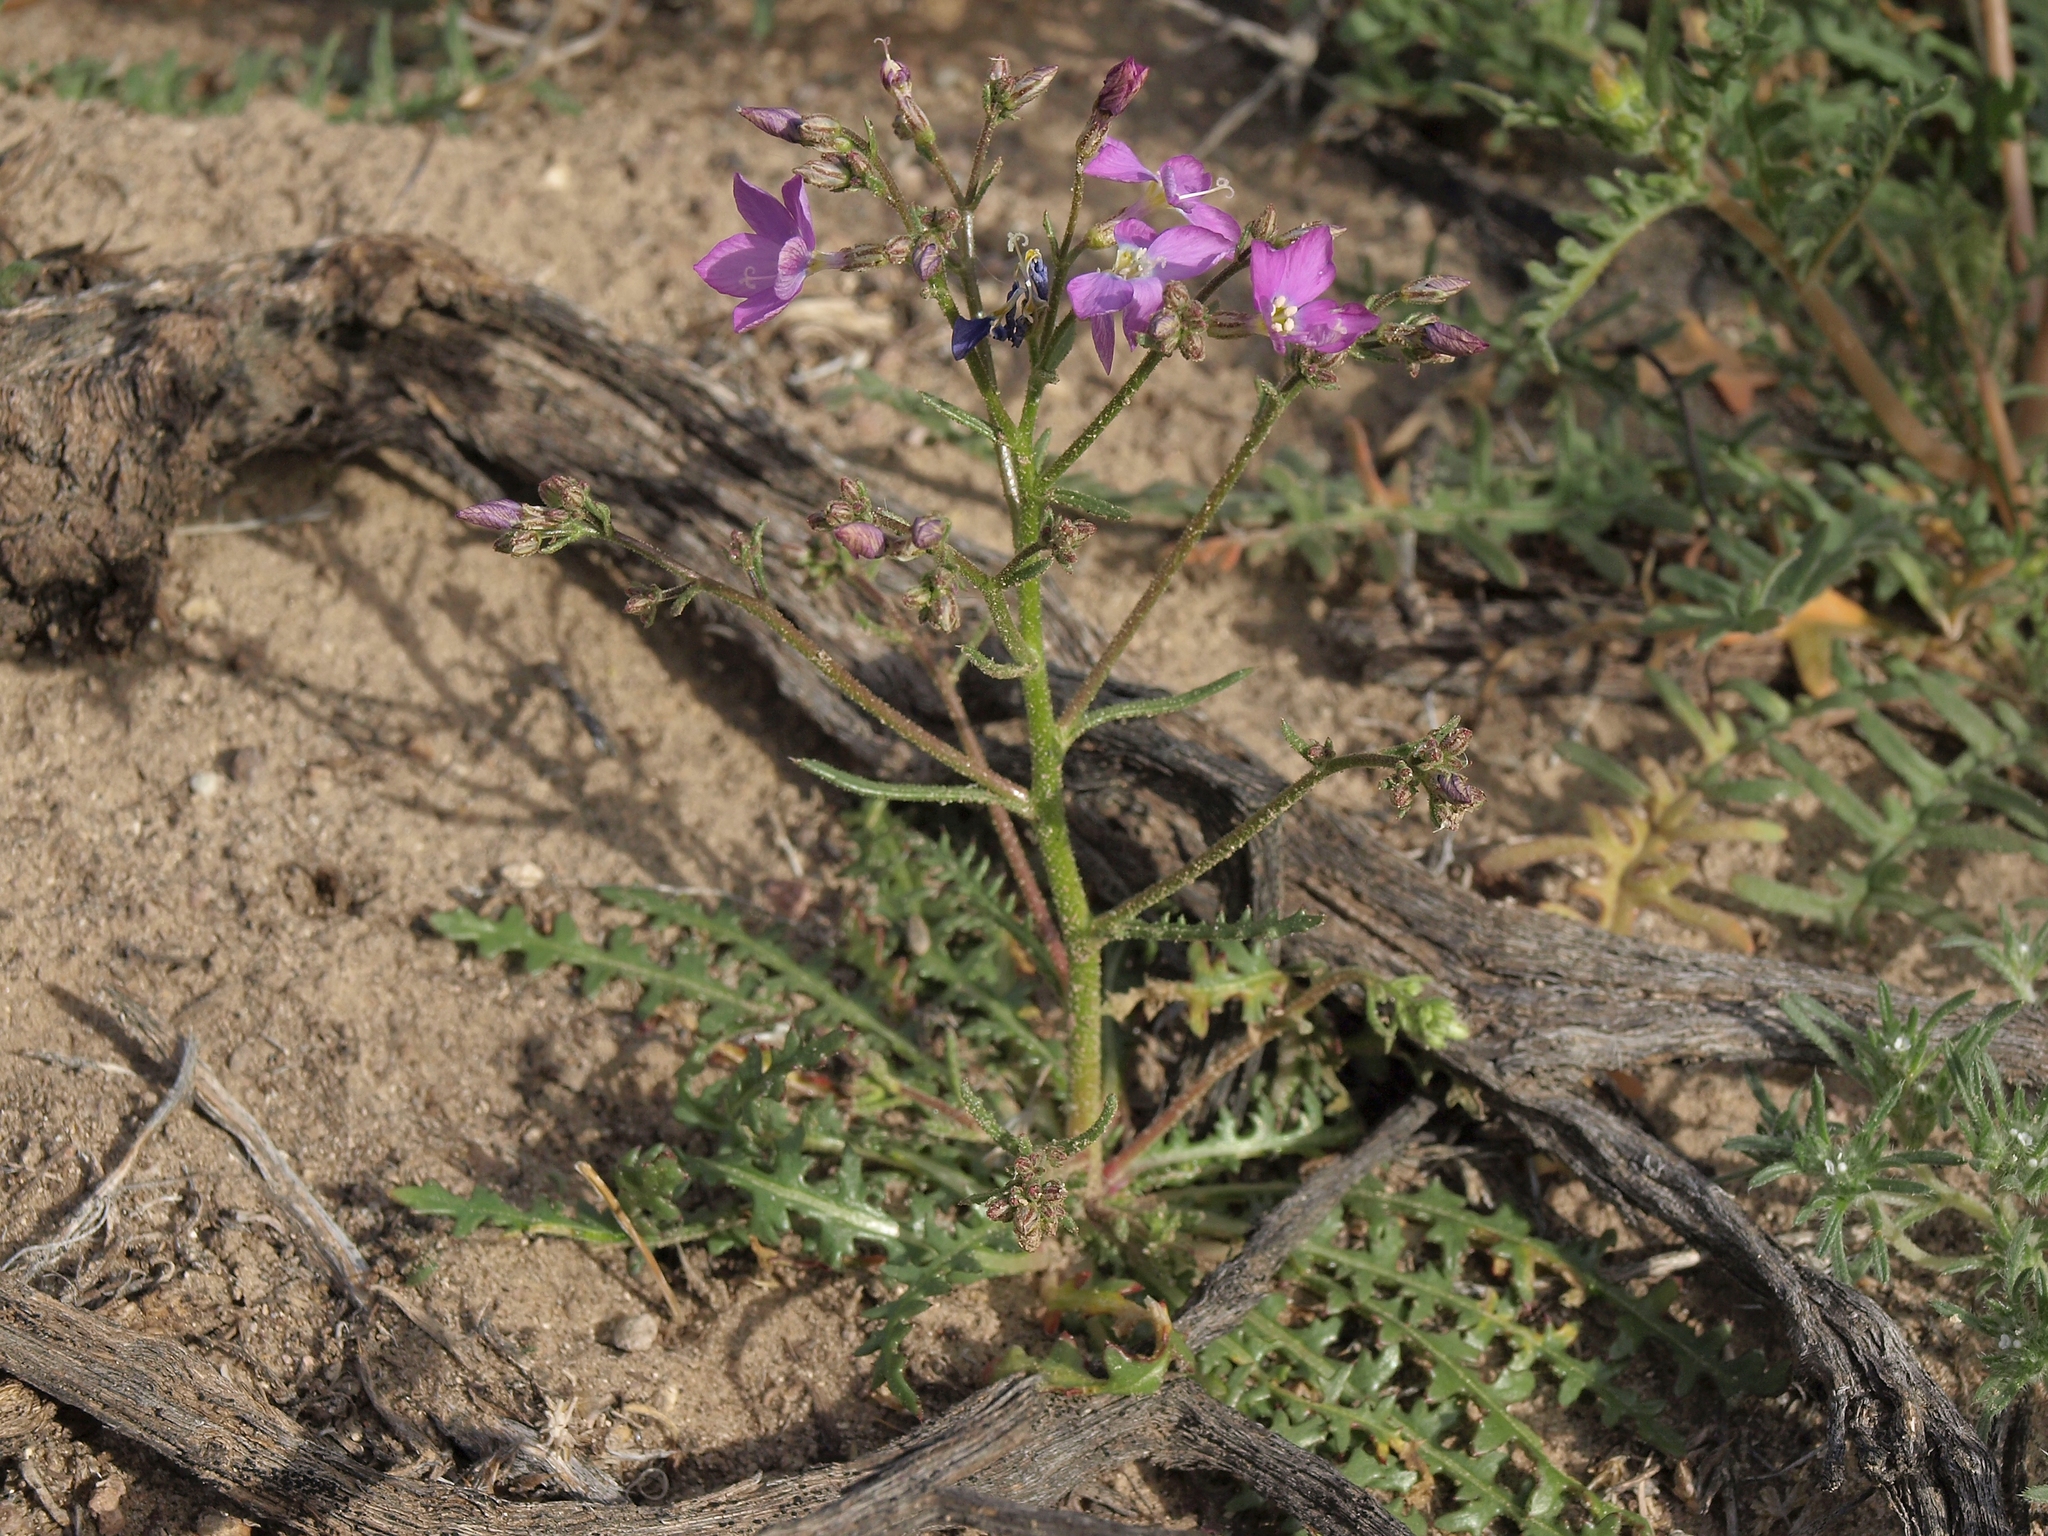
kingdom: Plantae
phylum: Tracheophyta
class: Magnoliopsida
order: Ericales
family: Polemoniaceae
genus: Aliciella
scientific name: Aliciella heterostyla
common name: Cactus flat gilia
